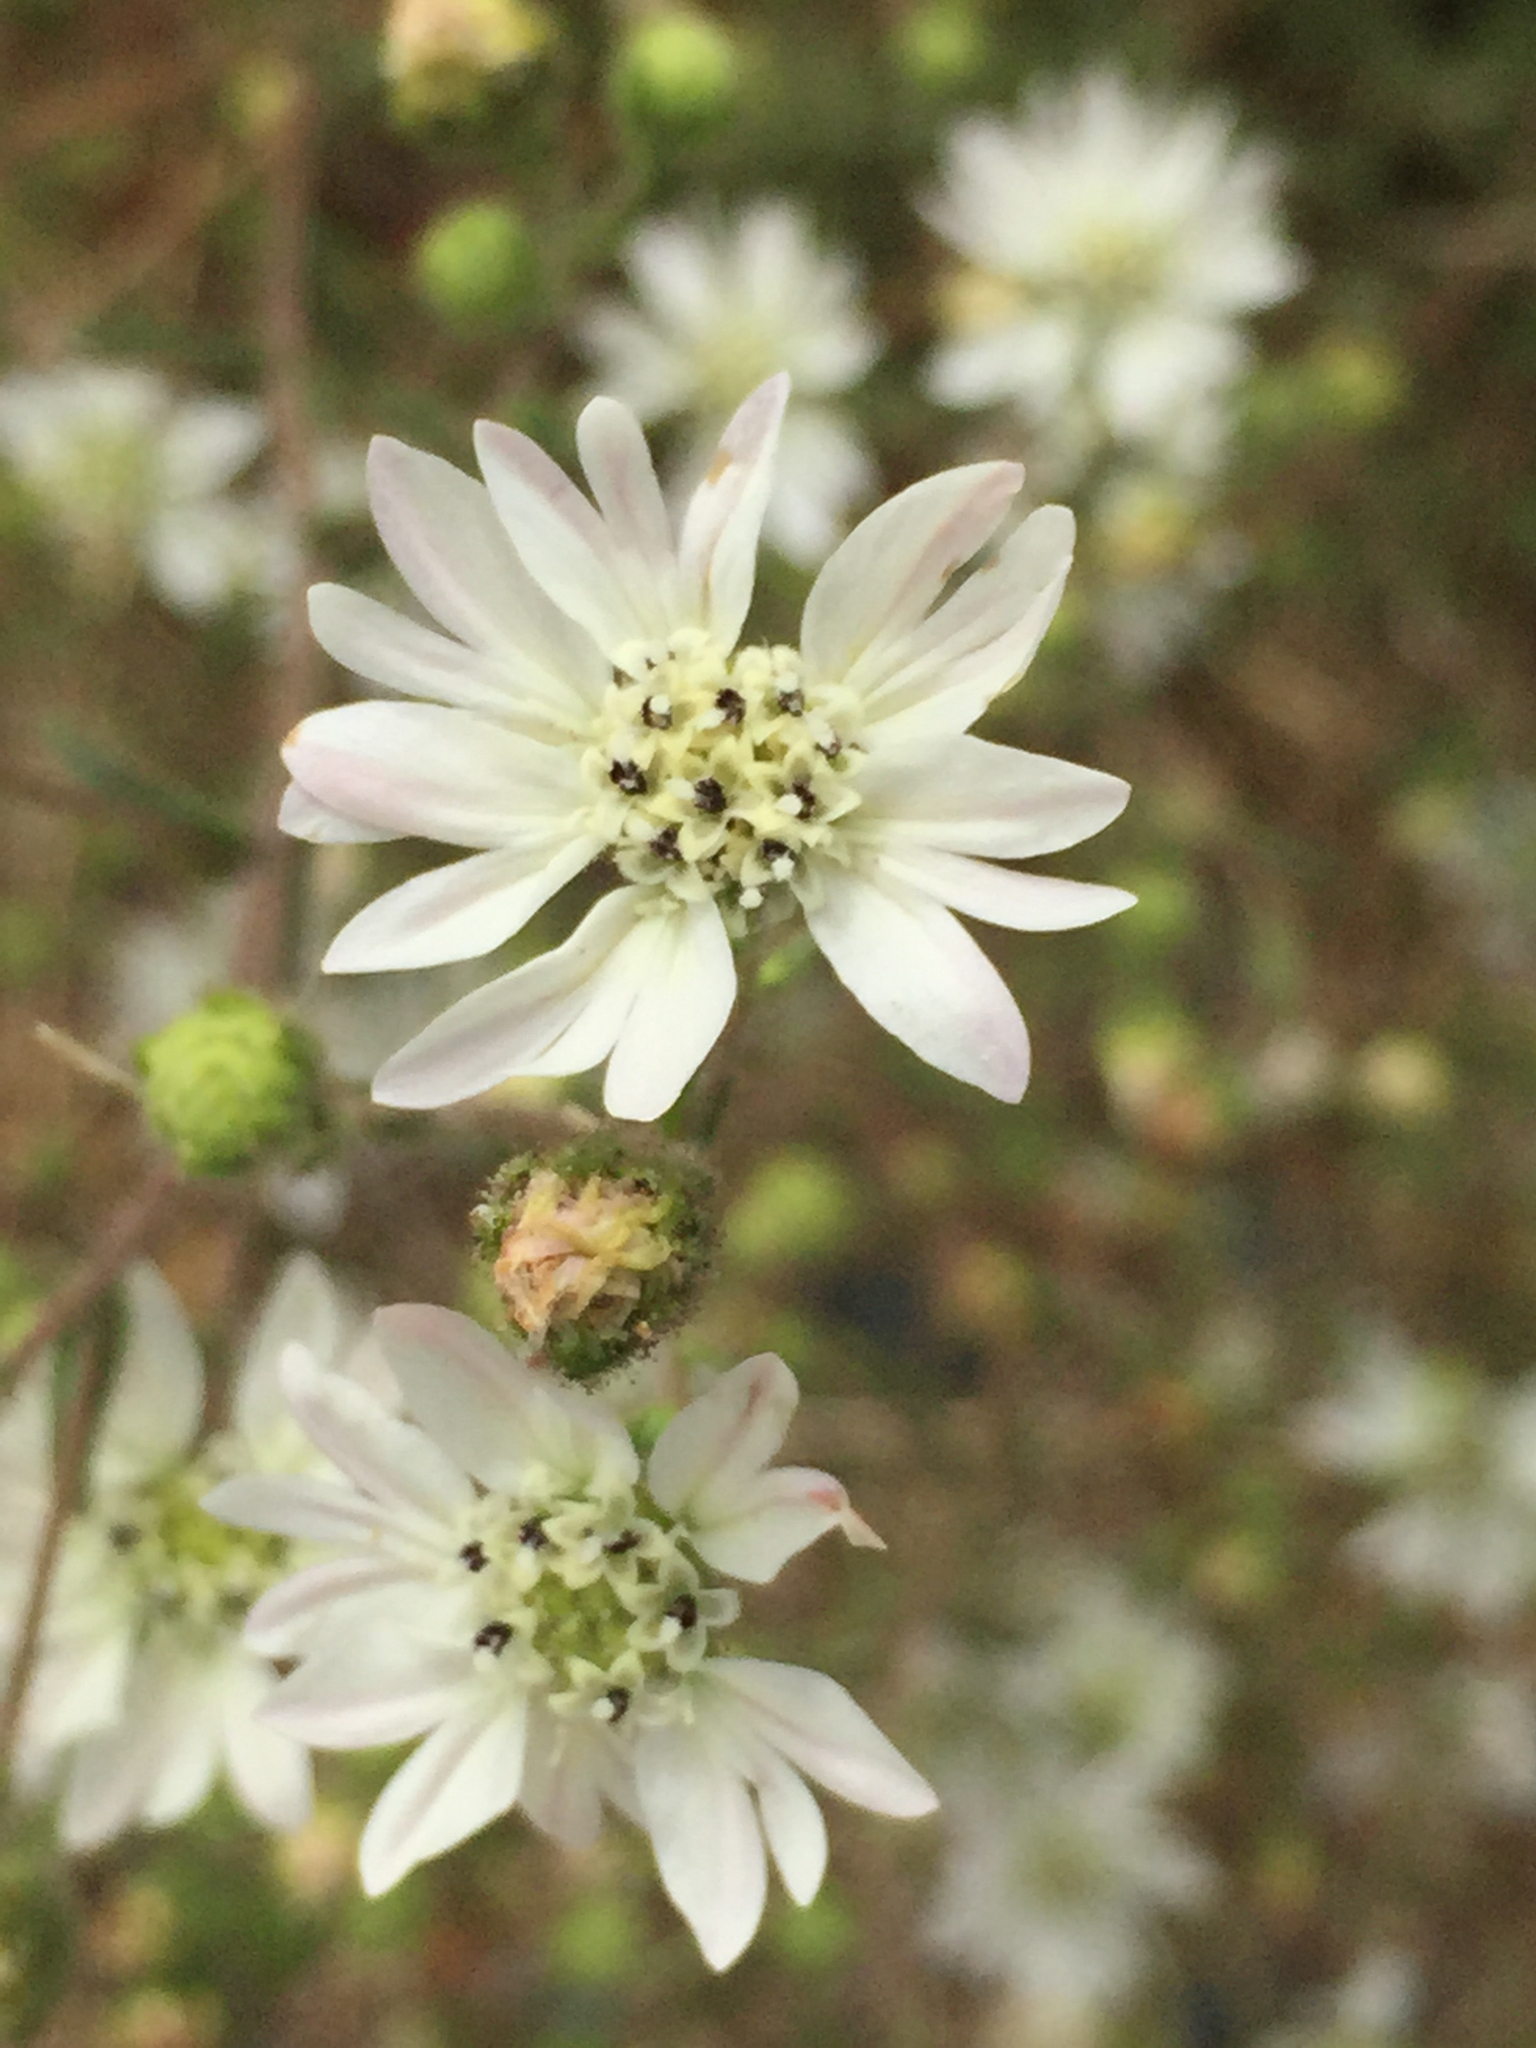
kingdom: Plantae
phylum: Tracheophyta
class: Magnoliopsida
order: Asterales
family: Asteraceae
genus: Hemizonia
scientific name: Hemizonia congesta
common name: Hayfield tarweed
